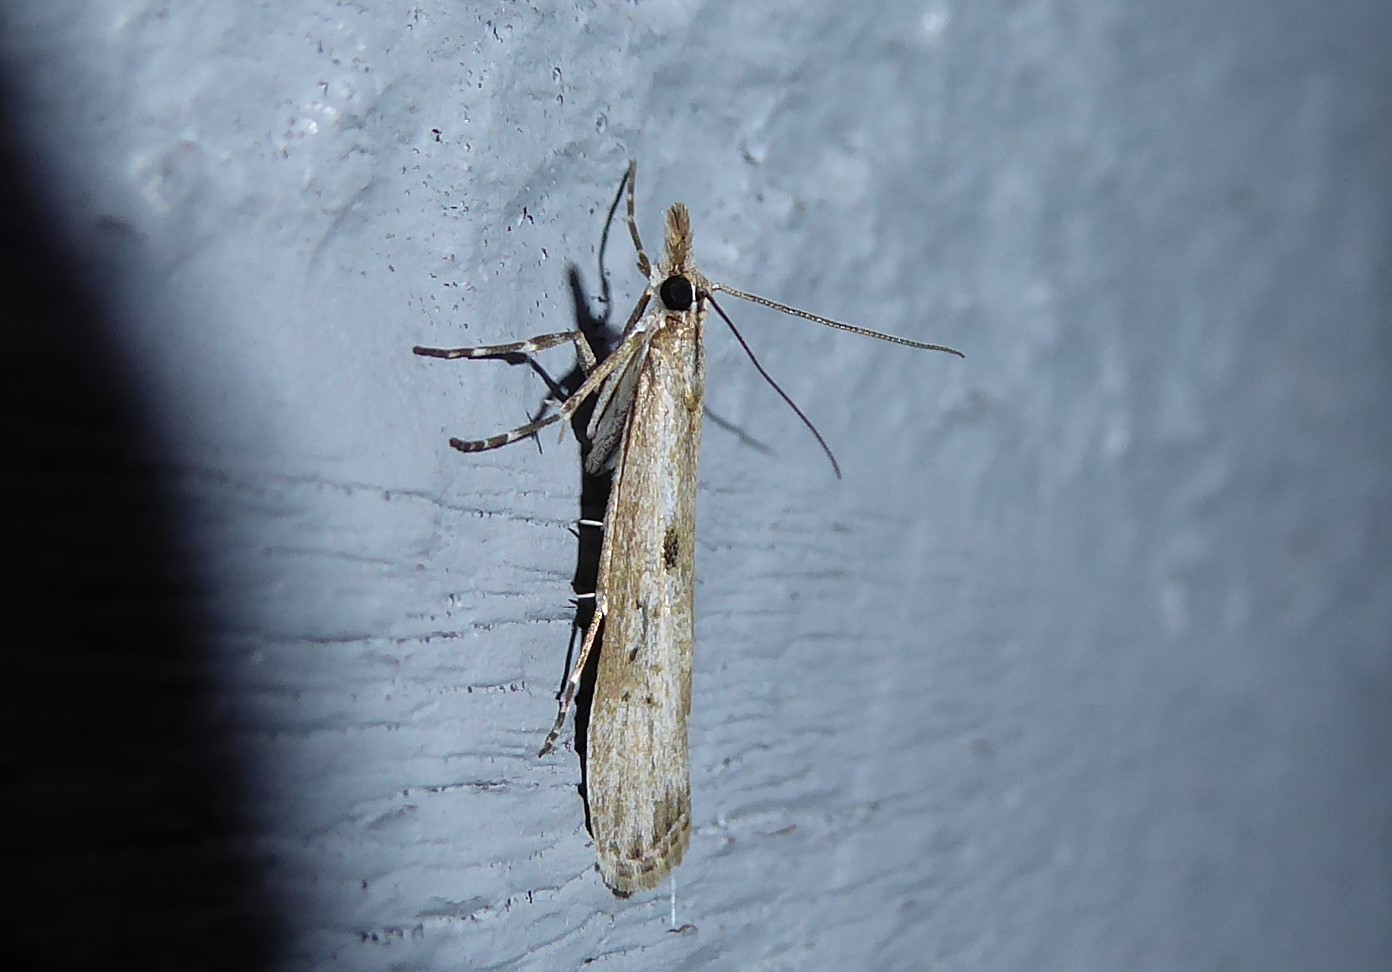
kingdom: Animalia
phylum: Arthropoda
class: Insecta
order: Lepidoptera
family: Crambidae
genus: Eudonia
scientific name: Eudonia leptalea
